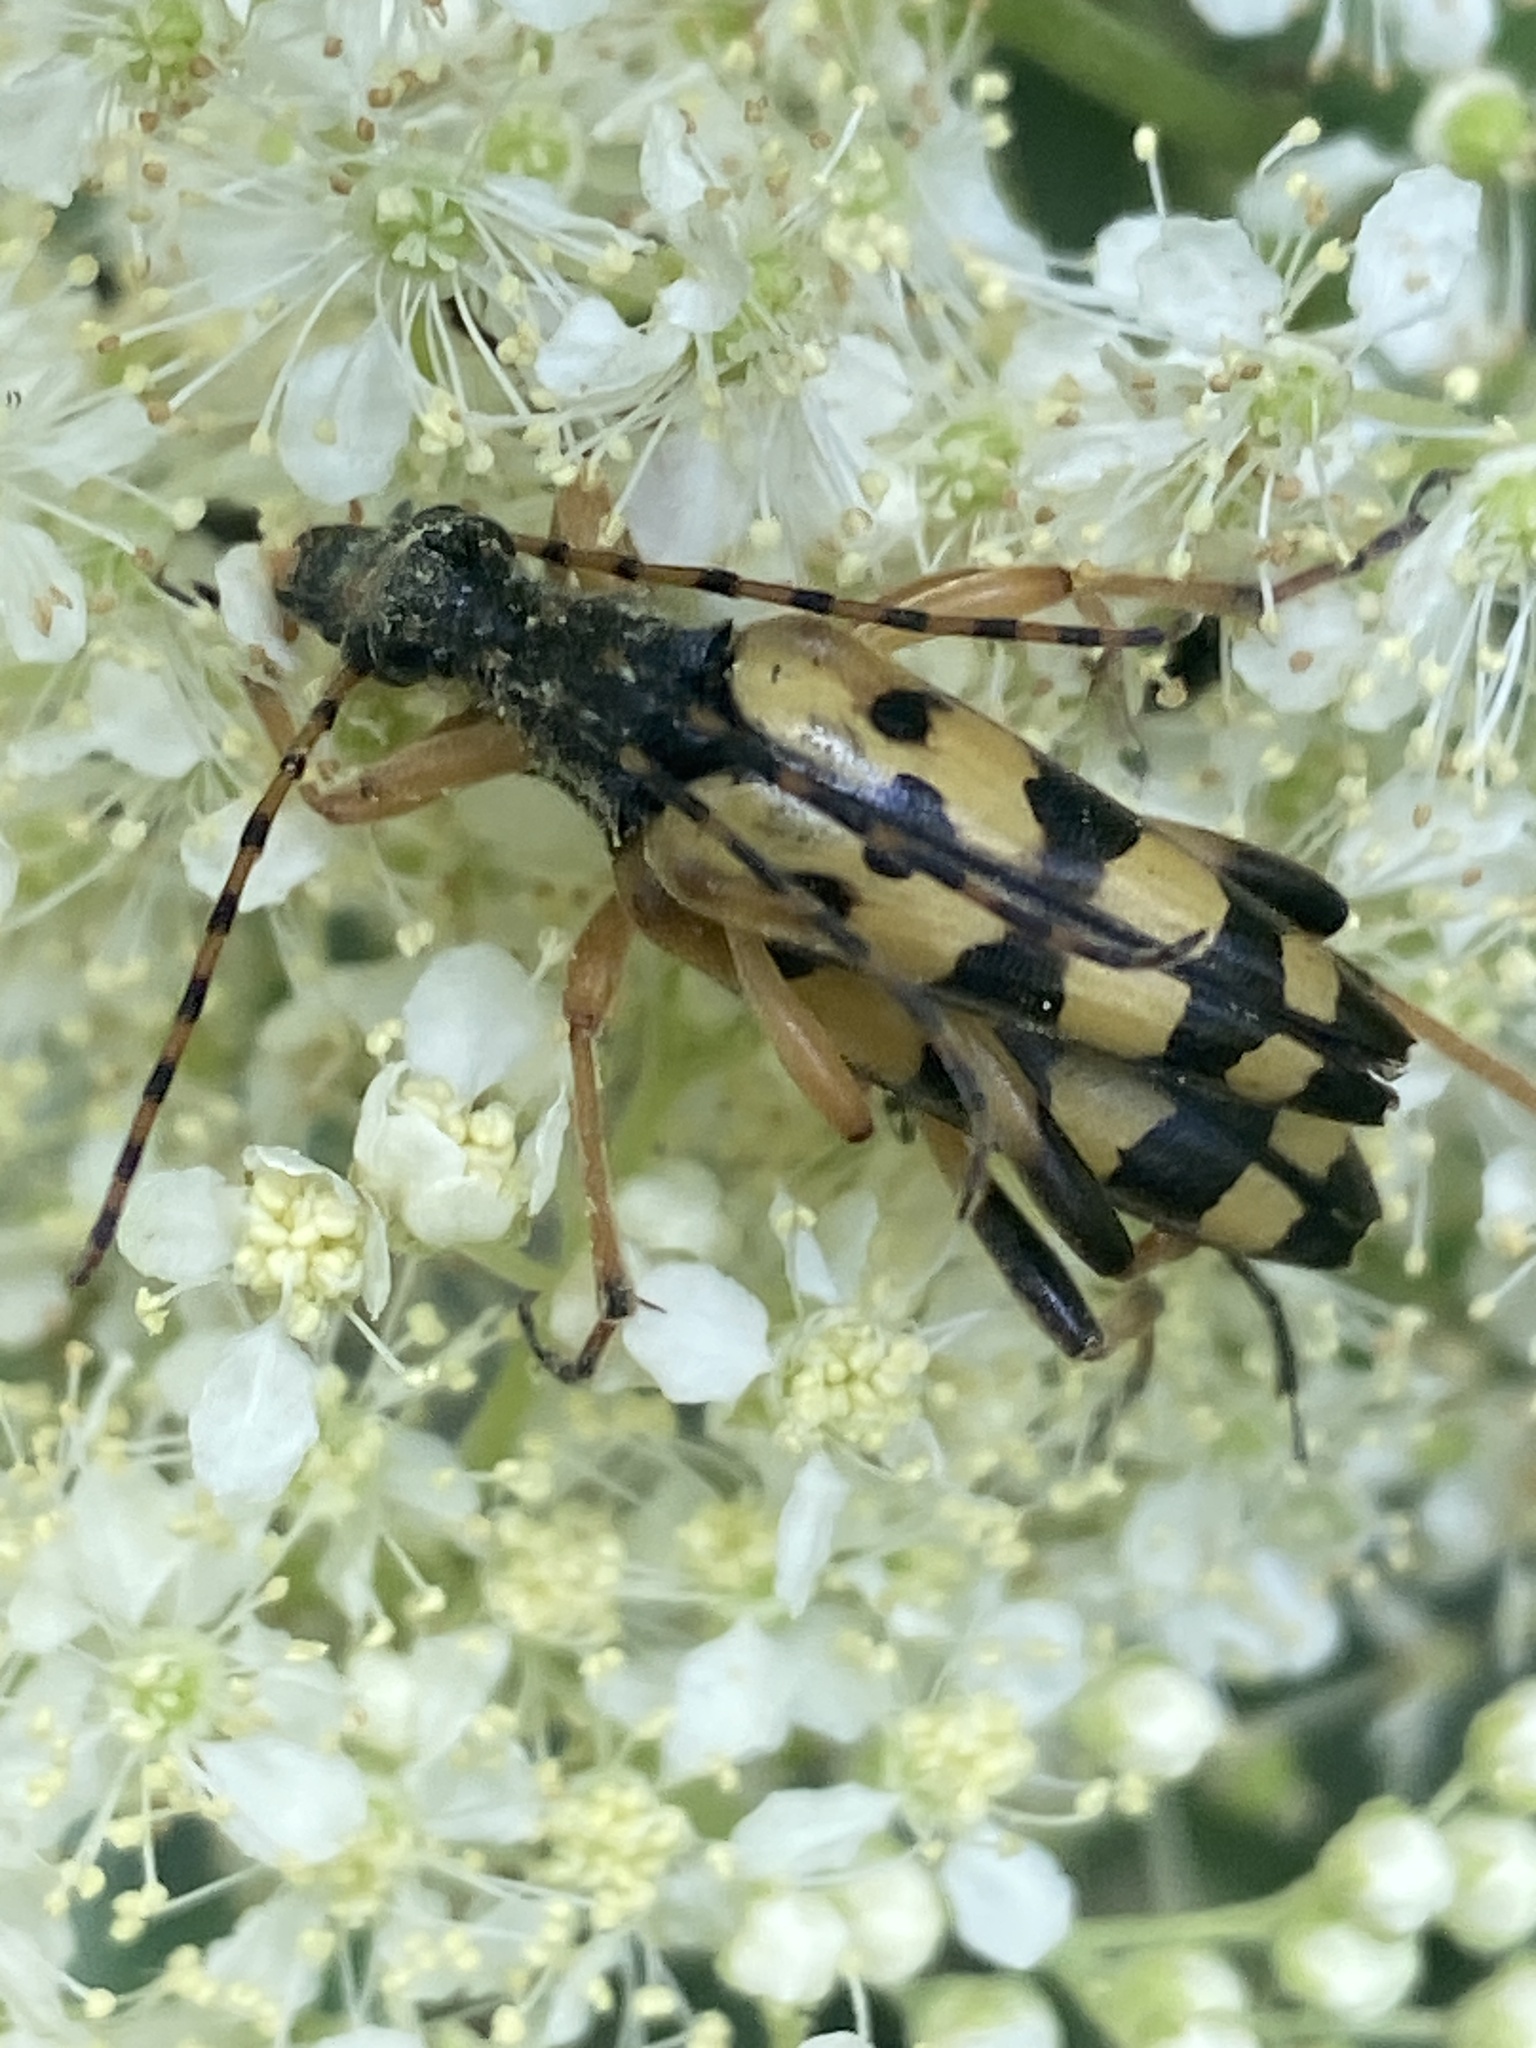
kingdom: Animalia
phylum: Arthropoda
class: Insecta
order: Coleoptera
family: Cerambycidae
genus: Rutpela
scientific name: Rutpela maculata
